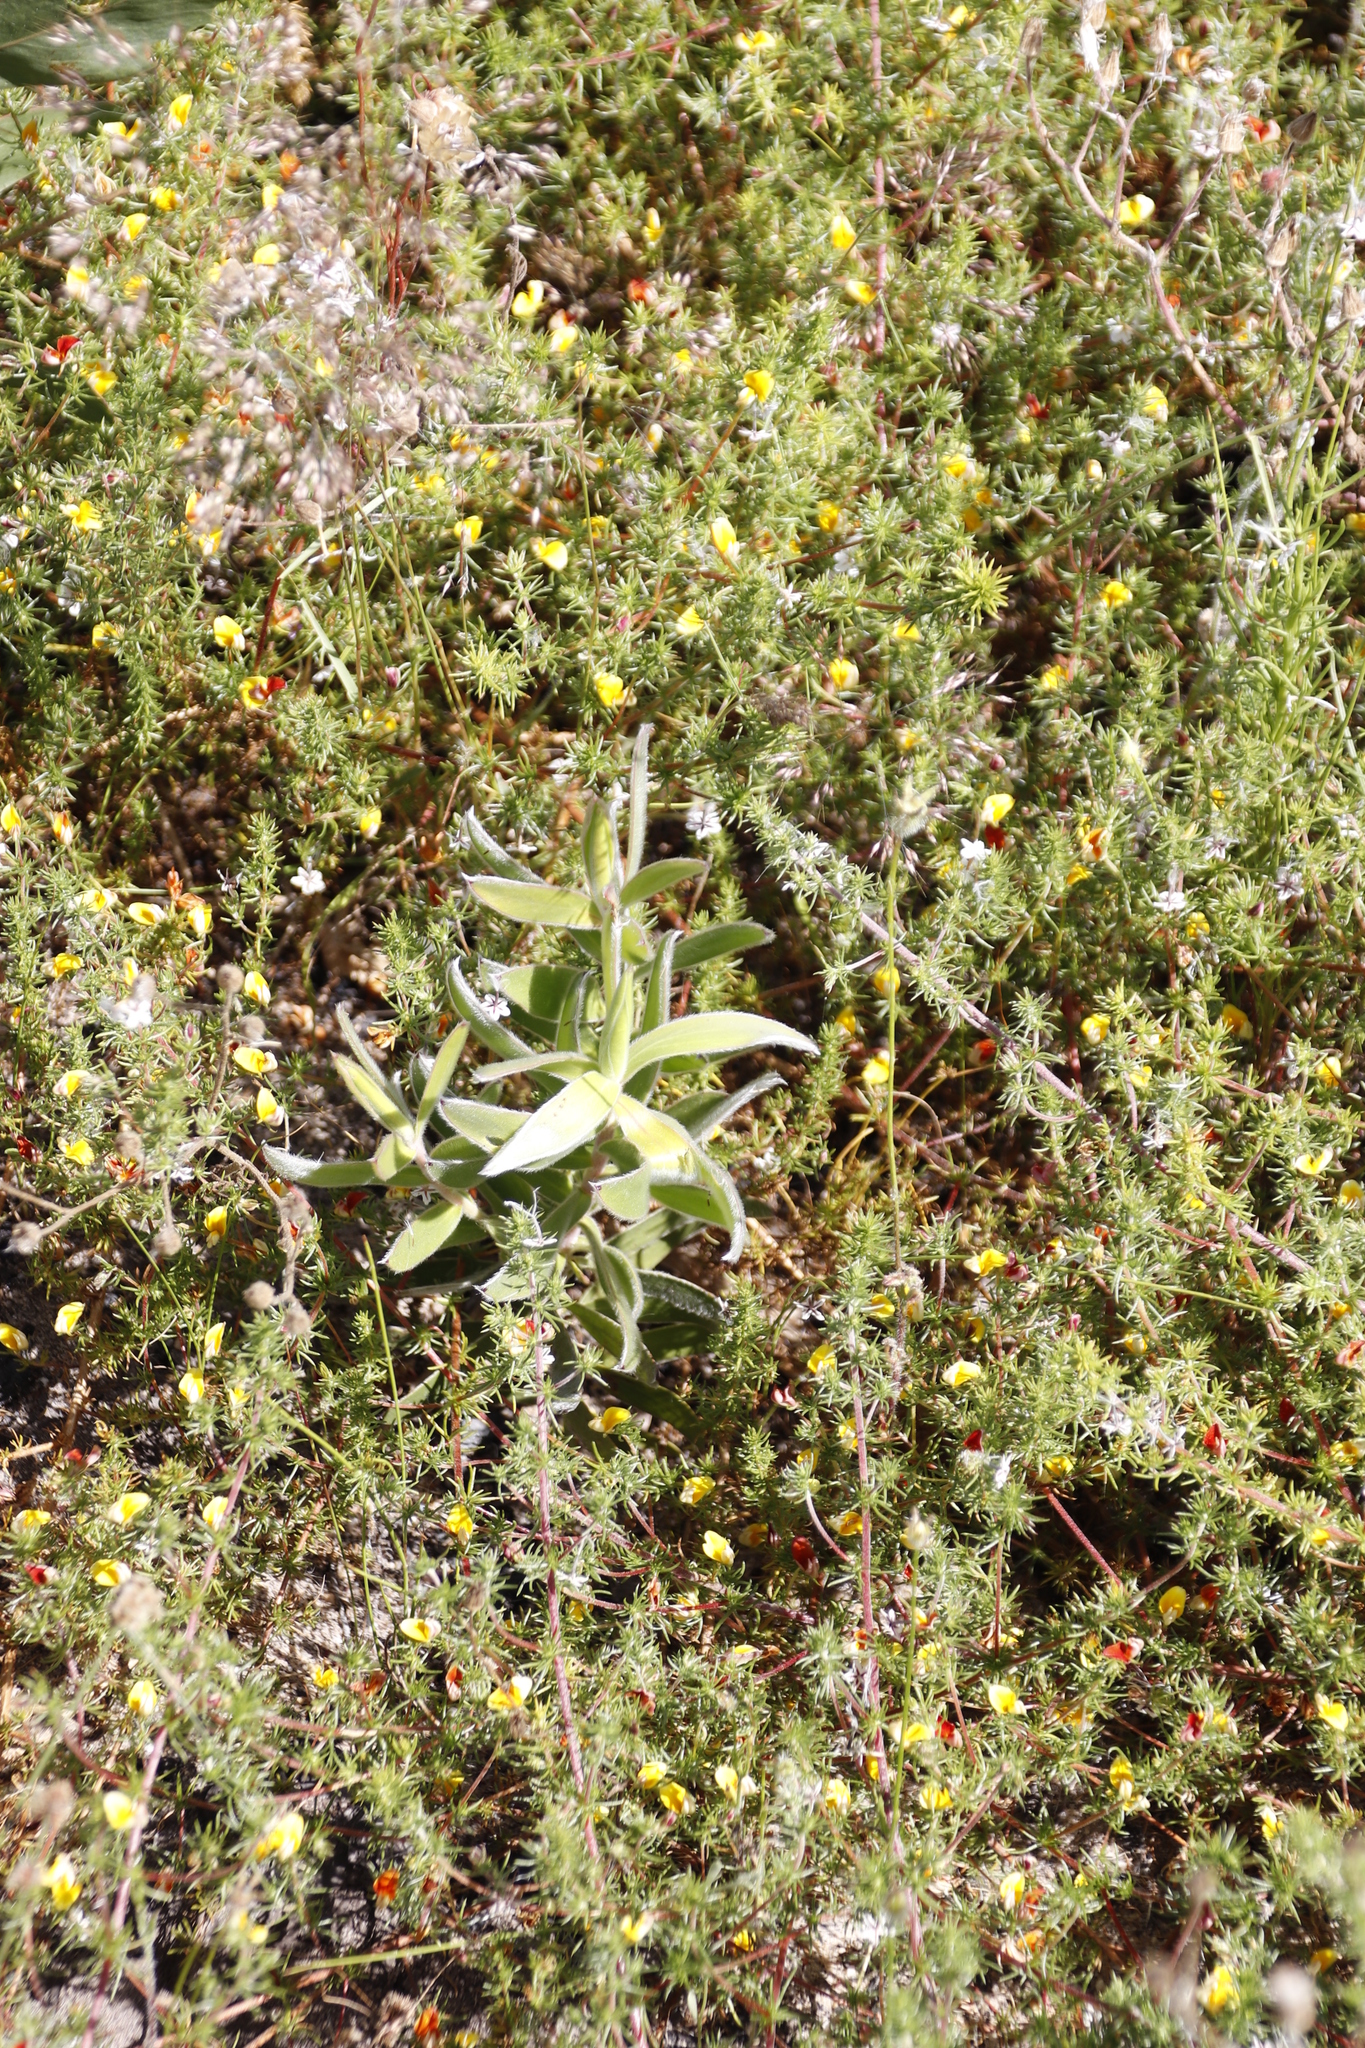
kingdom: Plantae
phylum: Tracheophyta
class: Magnoliopsida
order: Proteales
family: Proteaceae
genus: Leucadendron
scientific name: Leucadendron laureolum
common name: Golden sunshinebush
